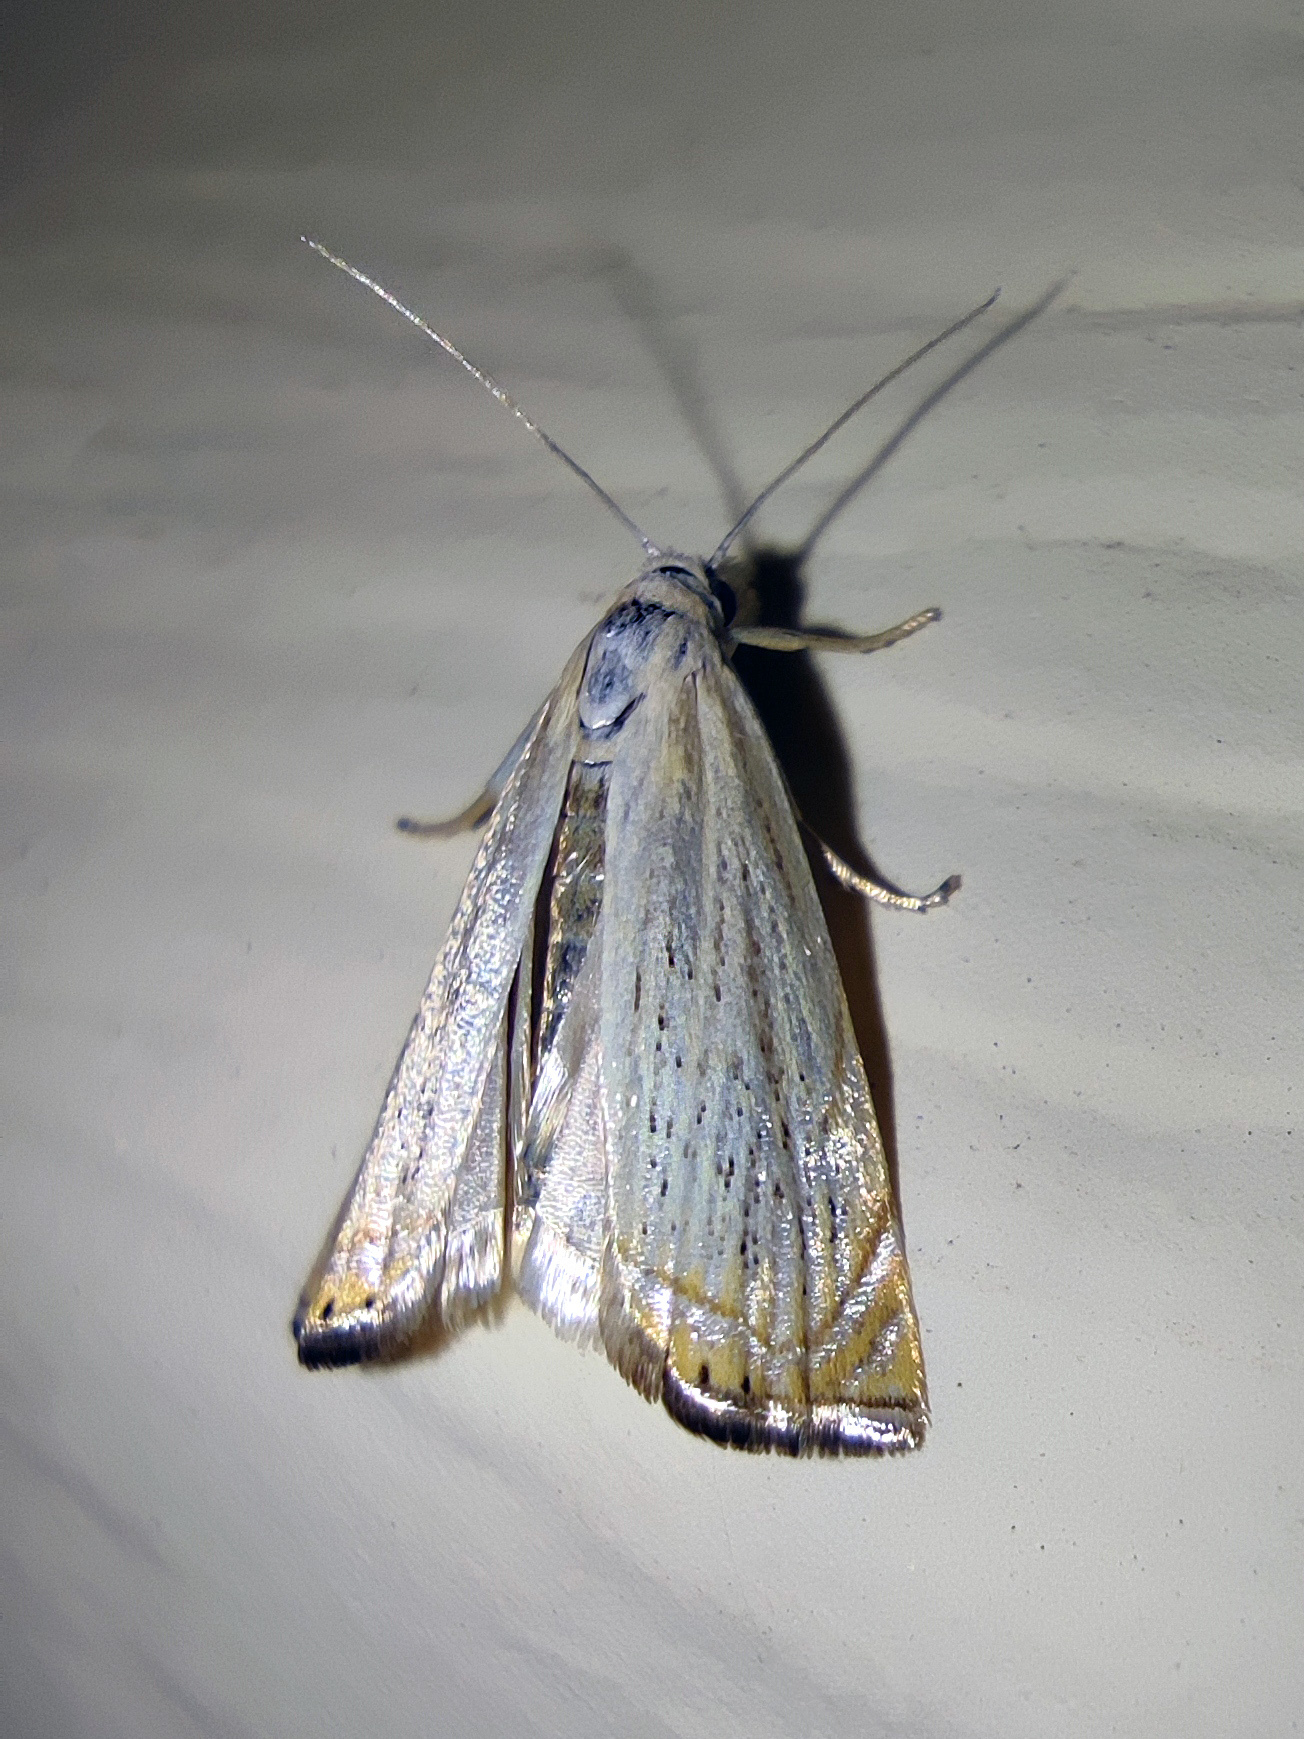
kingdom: Animalia
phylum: Arthropoda
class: Insecta
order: Lepidoptera
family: Crambidae
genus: Chrysoteuchia
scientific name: Chrysoteuchia culmella
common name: Garden grass-veneer
